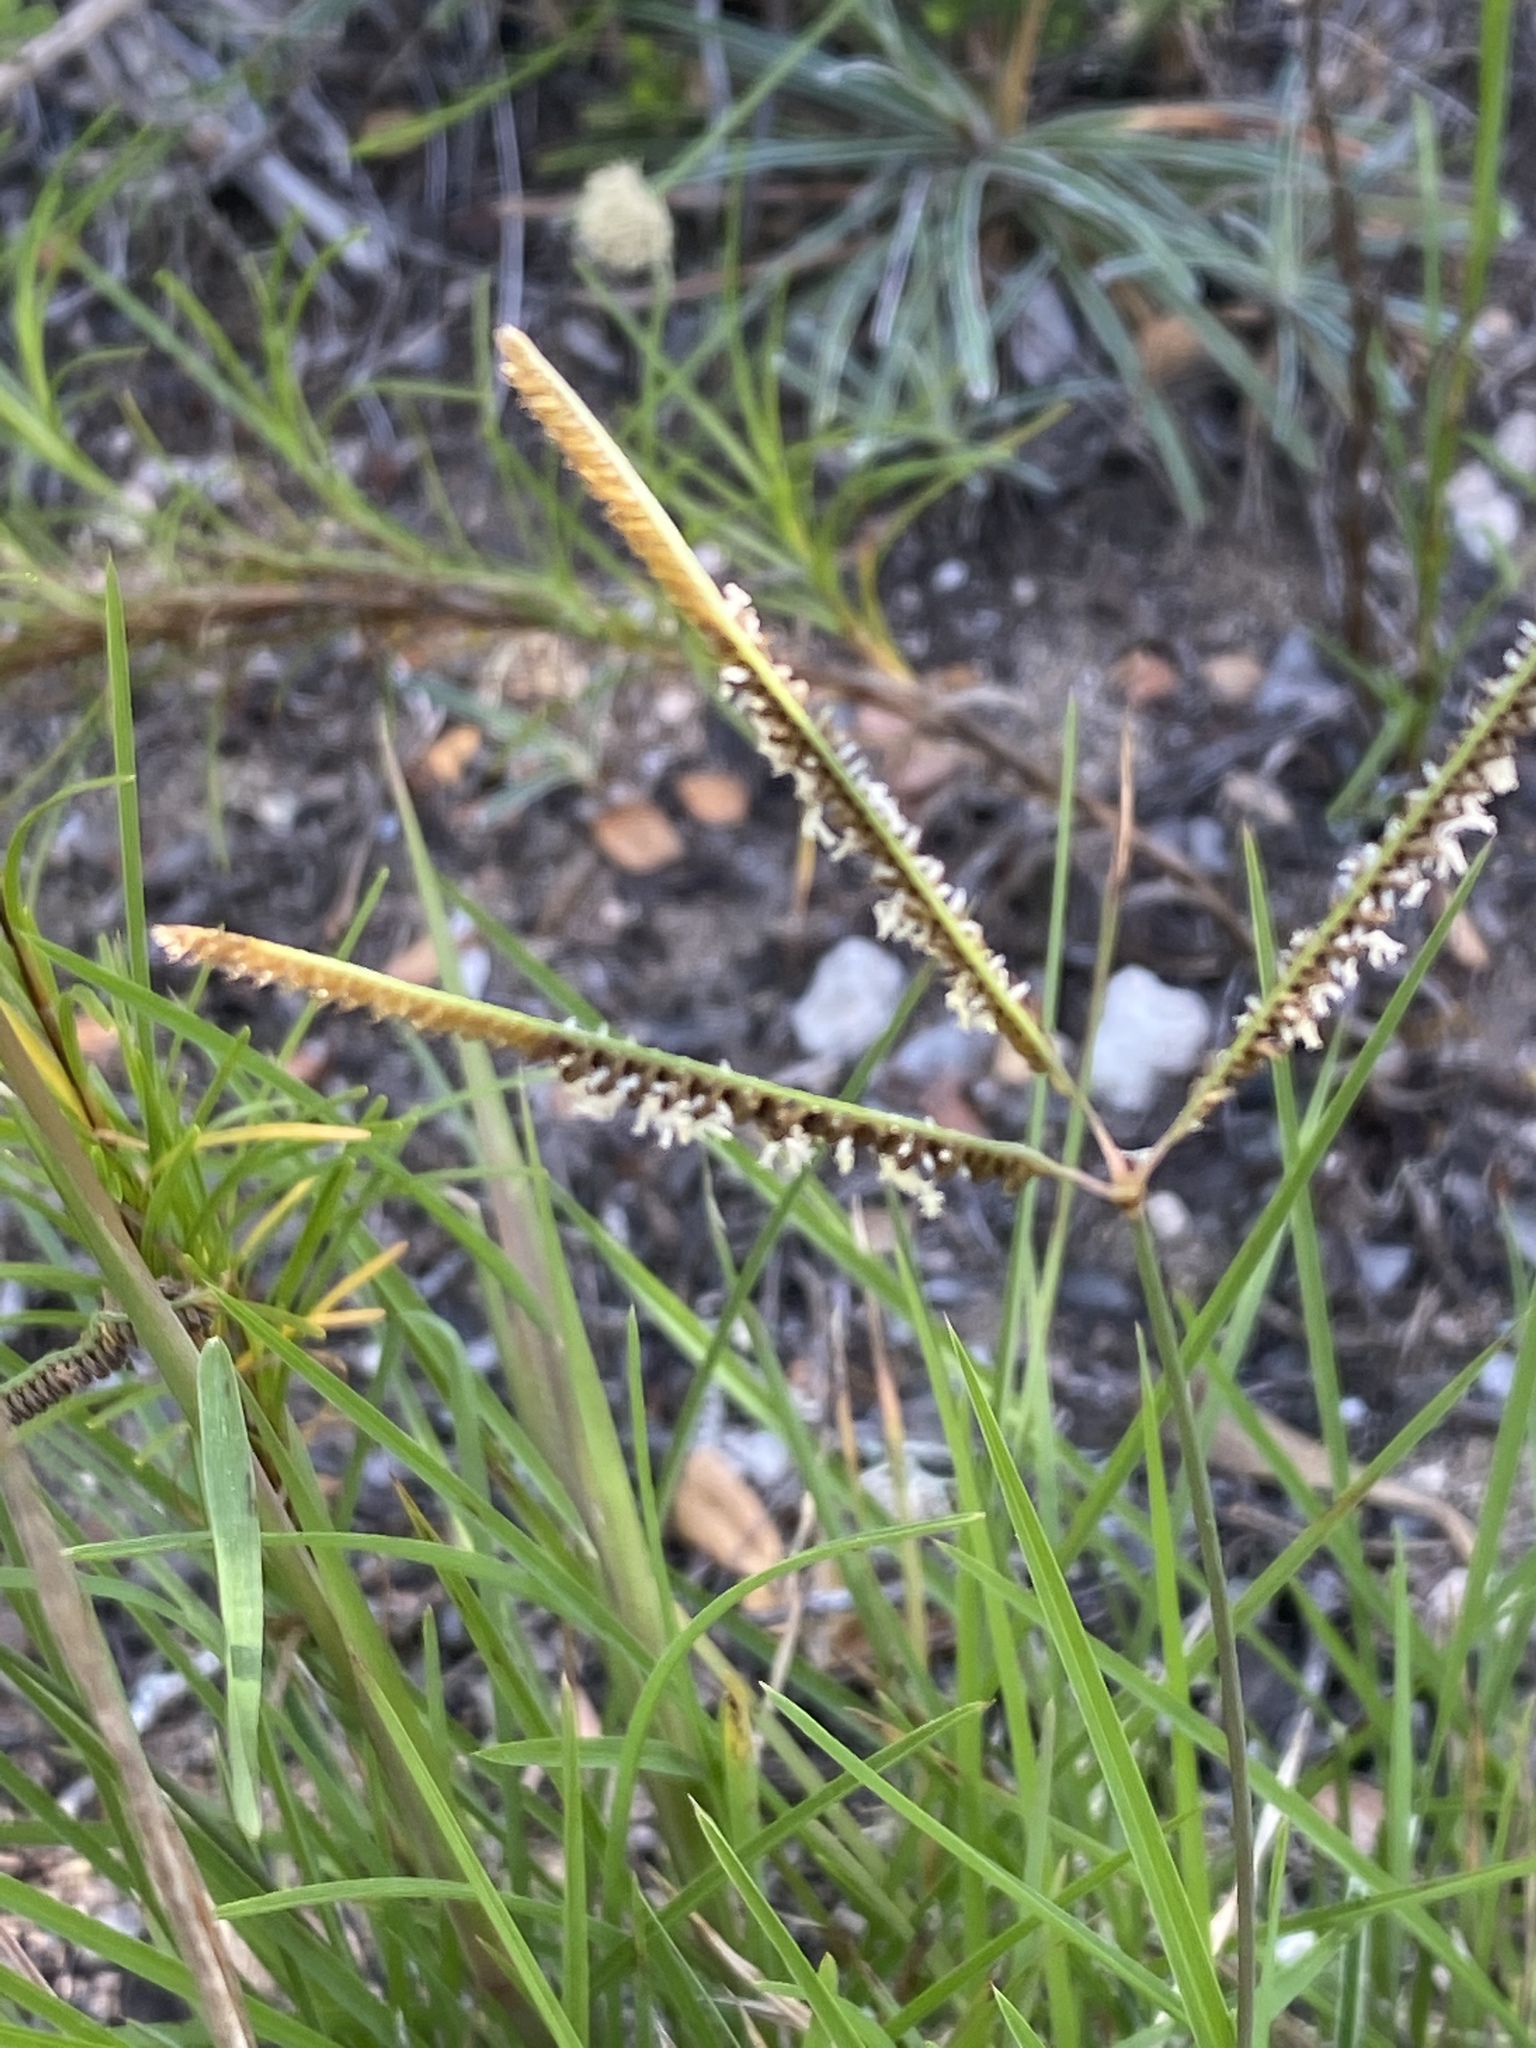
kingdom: Plantae
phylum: Tracheophyta
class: Liliopsida
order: Poales
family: Poaceae
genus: Cynodon
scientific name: Cynodon dactylon
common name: Bermuda grass
